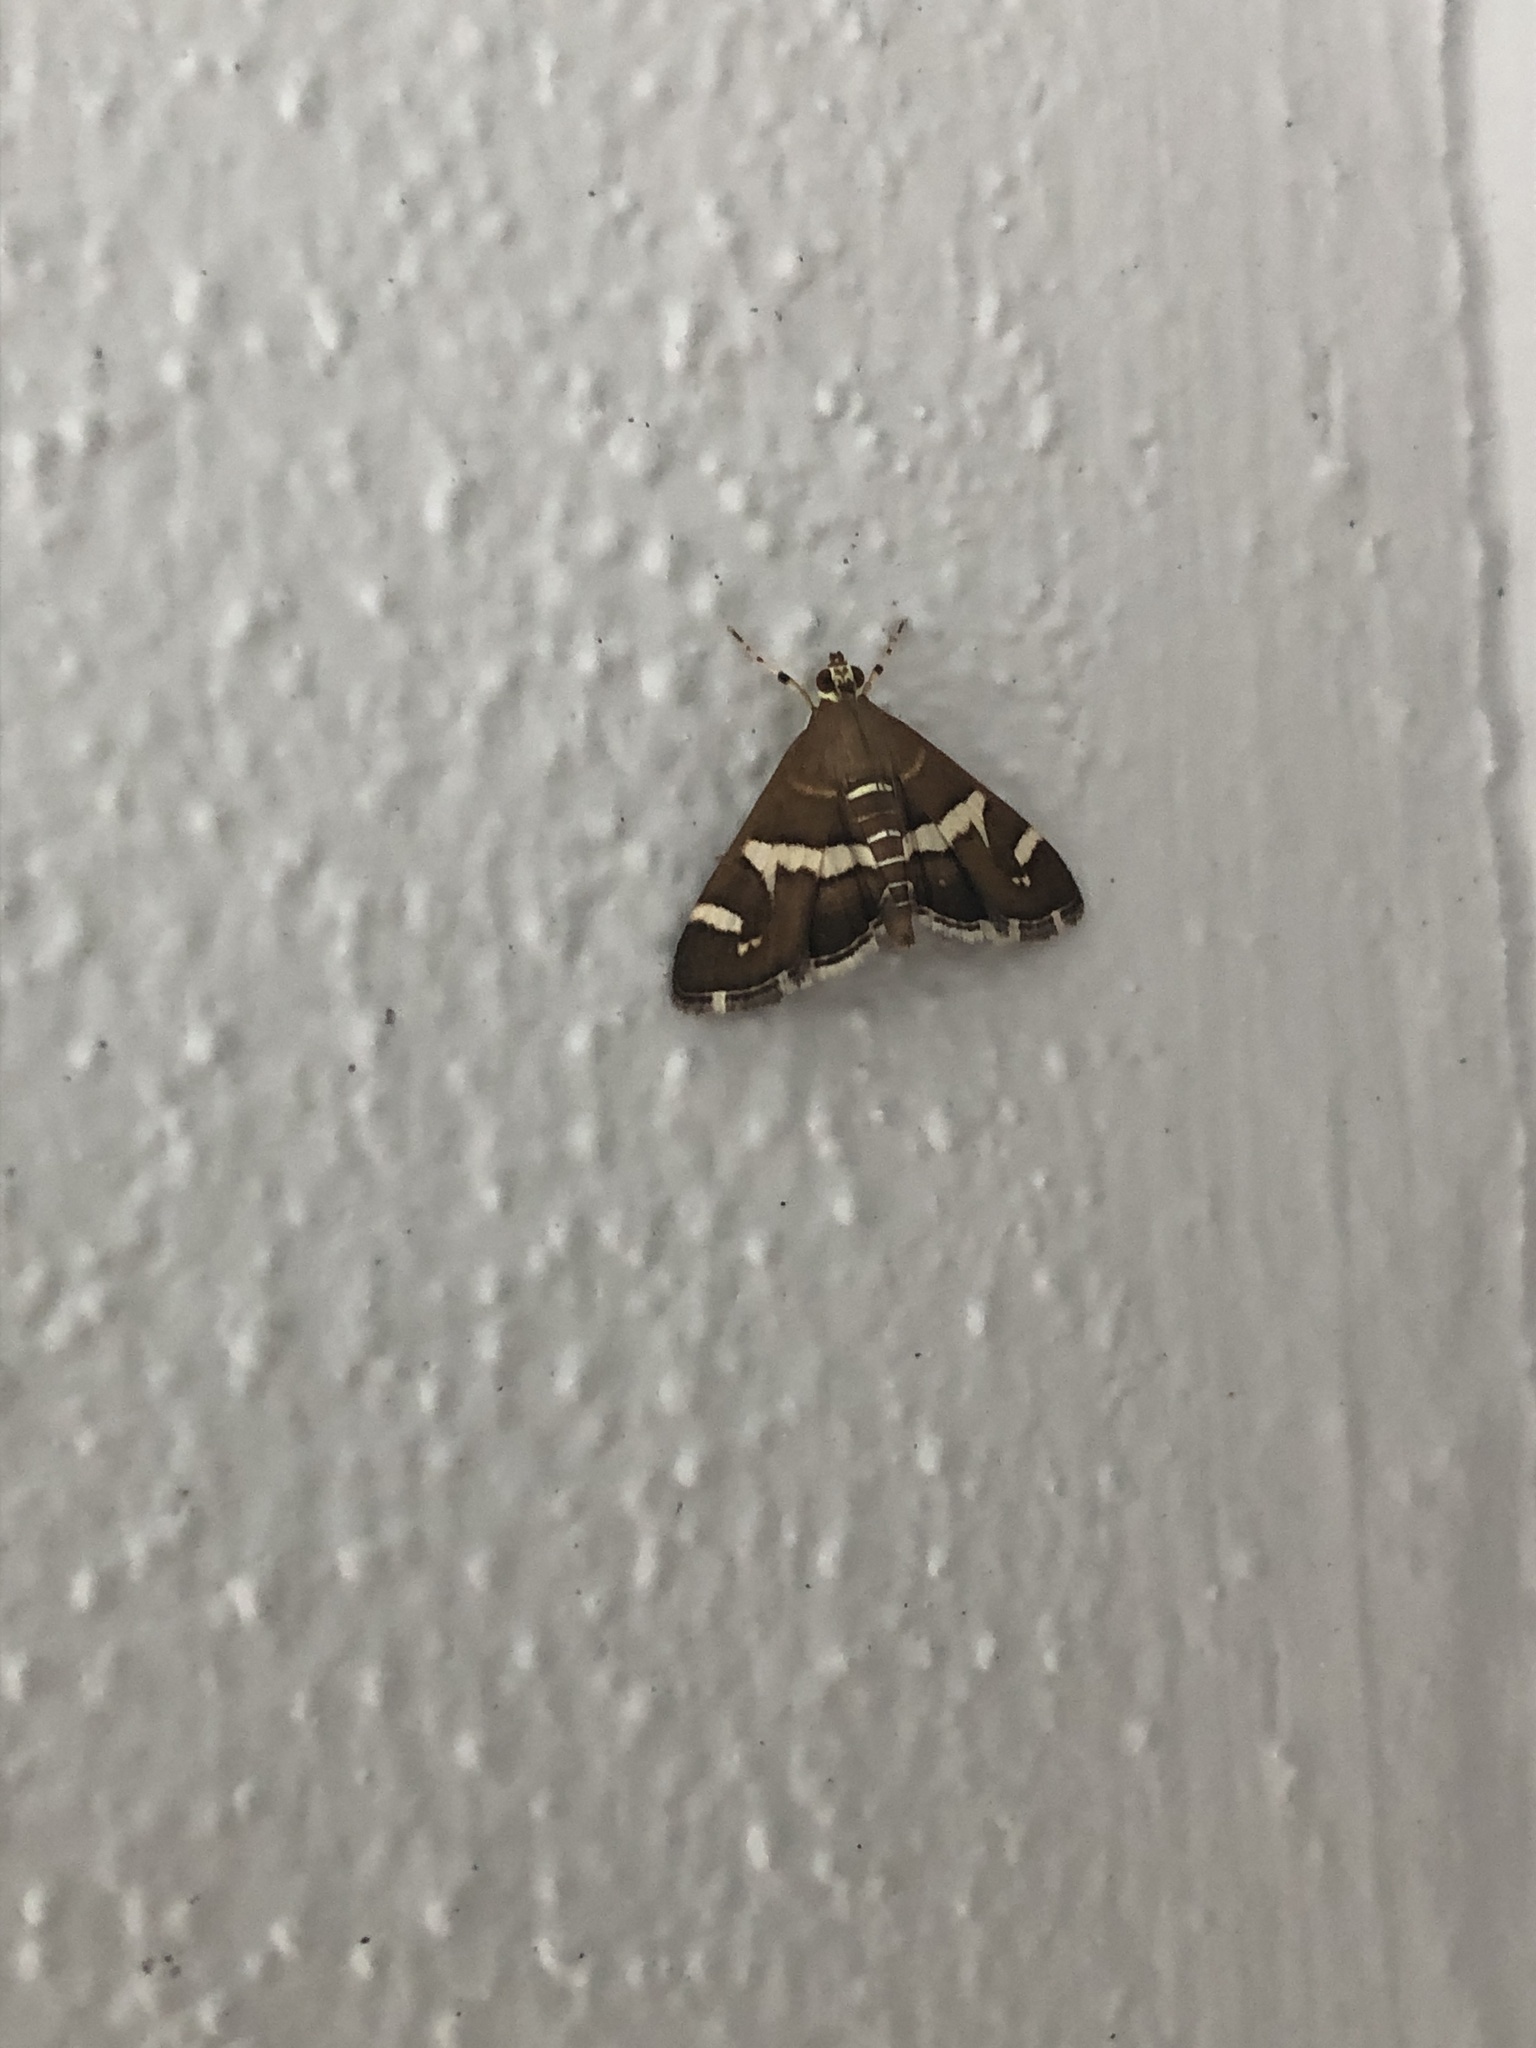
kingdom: Animalia
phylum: Arthropoda
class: Insecta
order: Lepidoptera
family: Crambidae
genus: Spoladea
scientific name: Spoladea recurvalis
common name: Beet webworm moth
